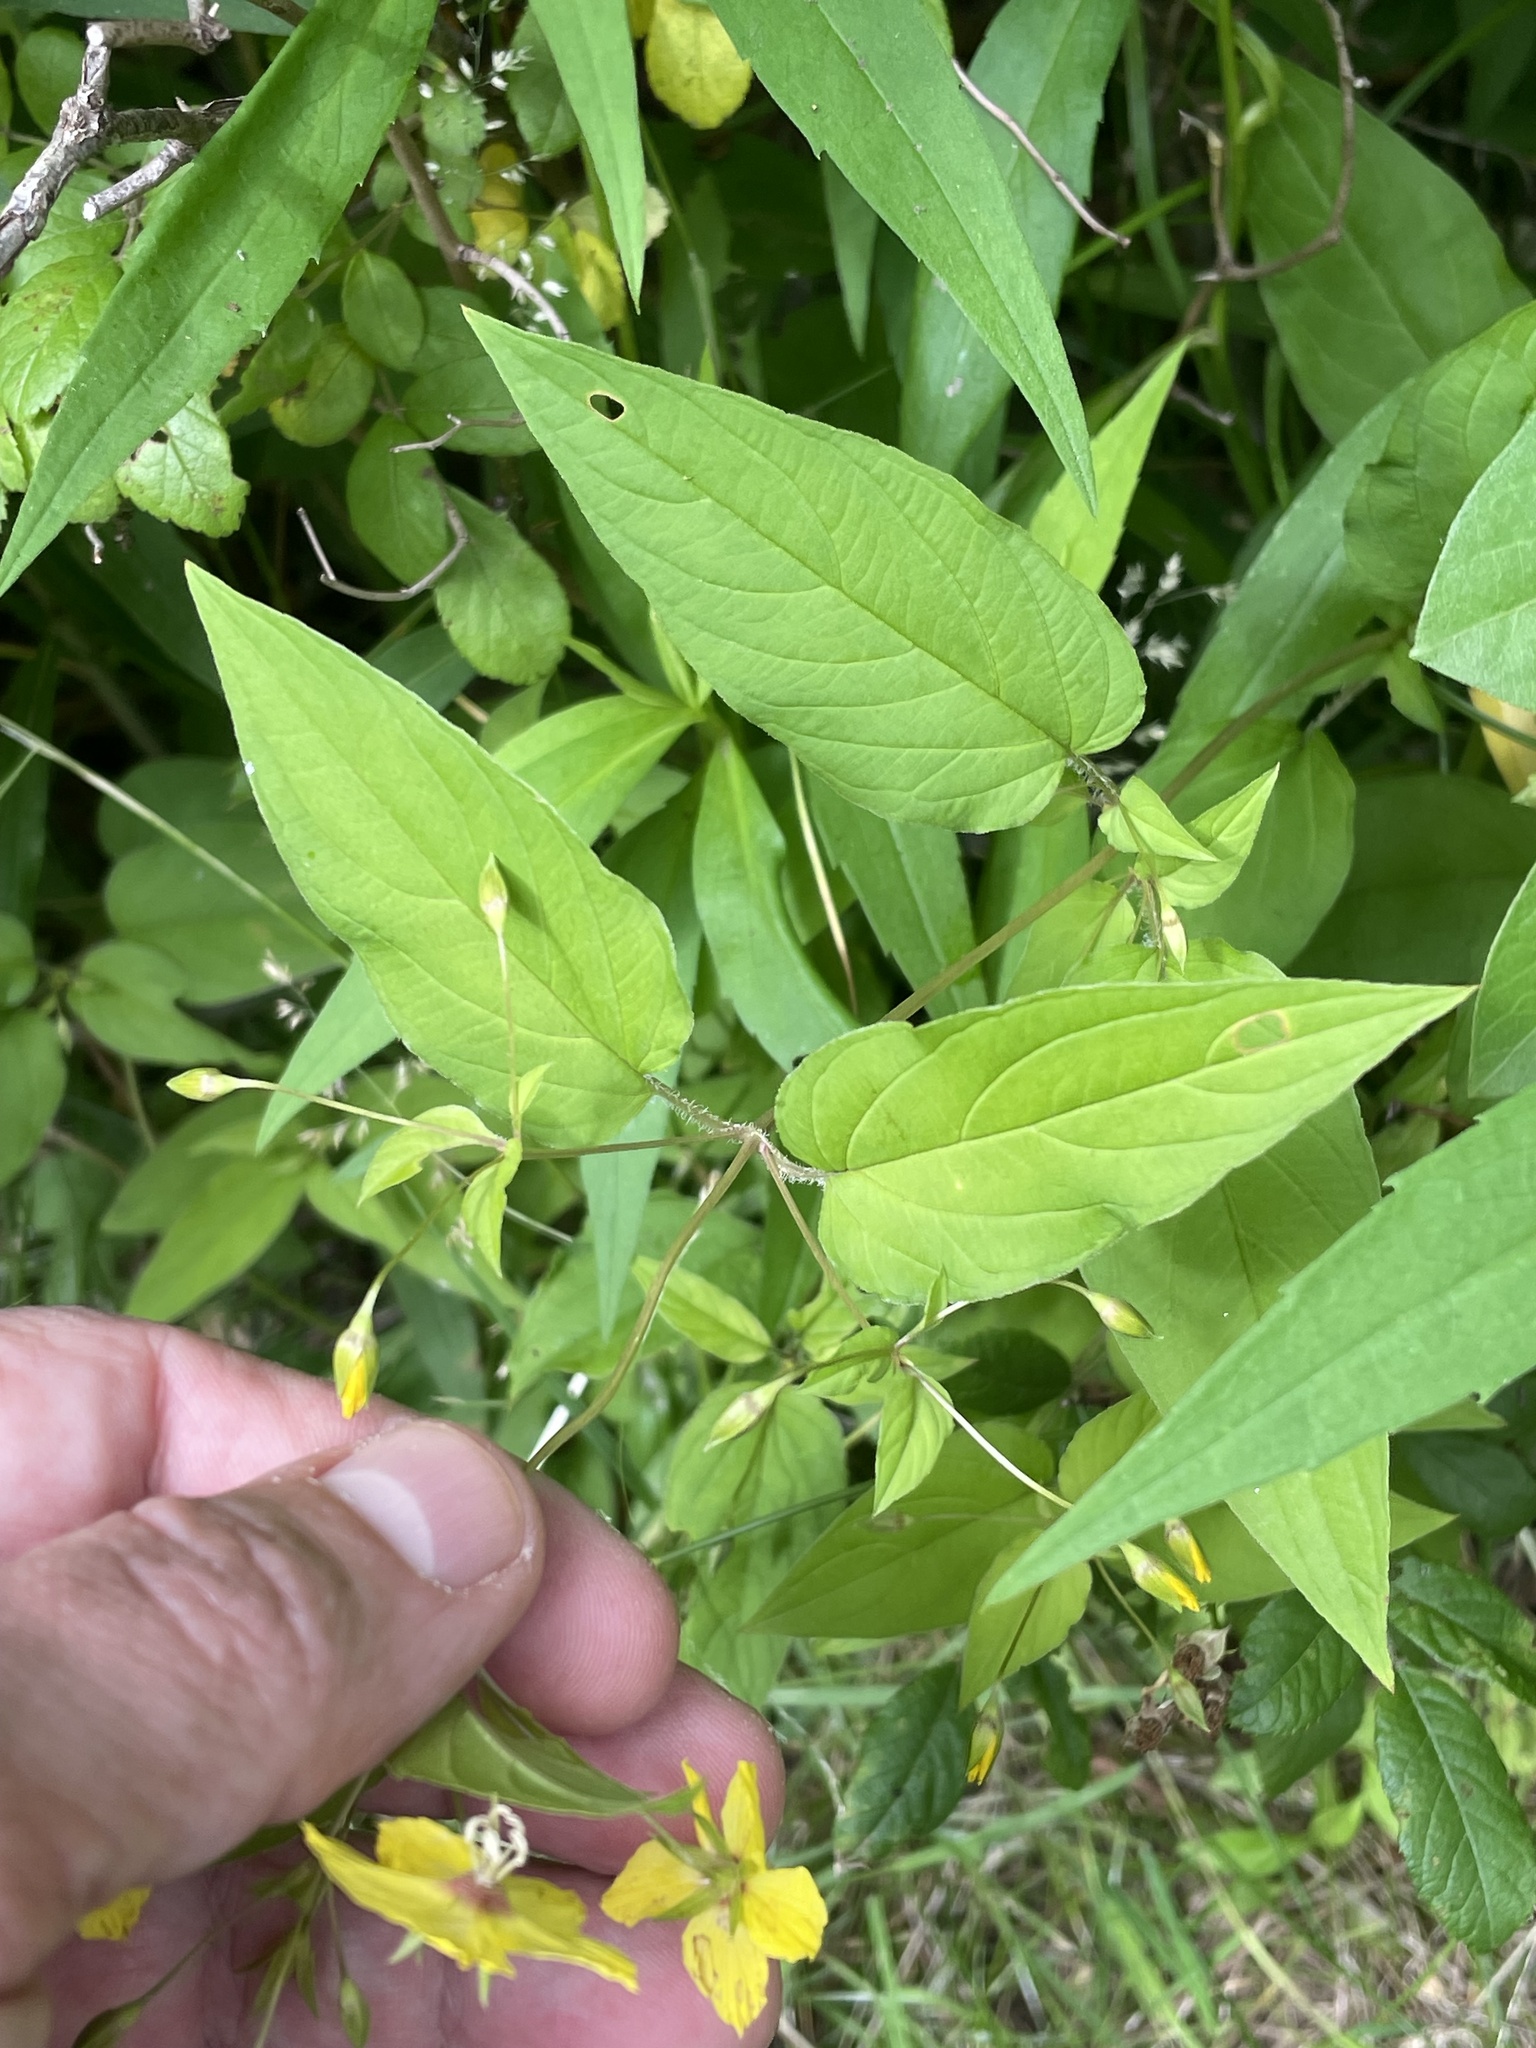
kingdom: Plantae
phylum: Tracheophyta
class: Magnoliopsida
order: Ericales
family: Primulaceae
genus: Lysimachia
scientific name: Lysimachia ciliata
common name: Fringed loosestrife
